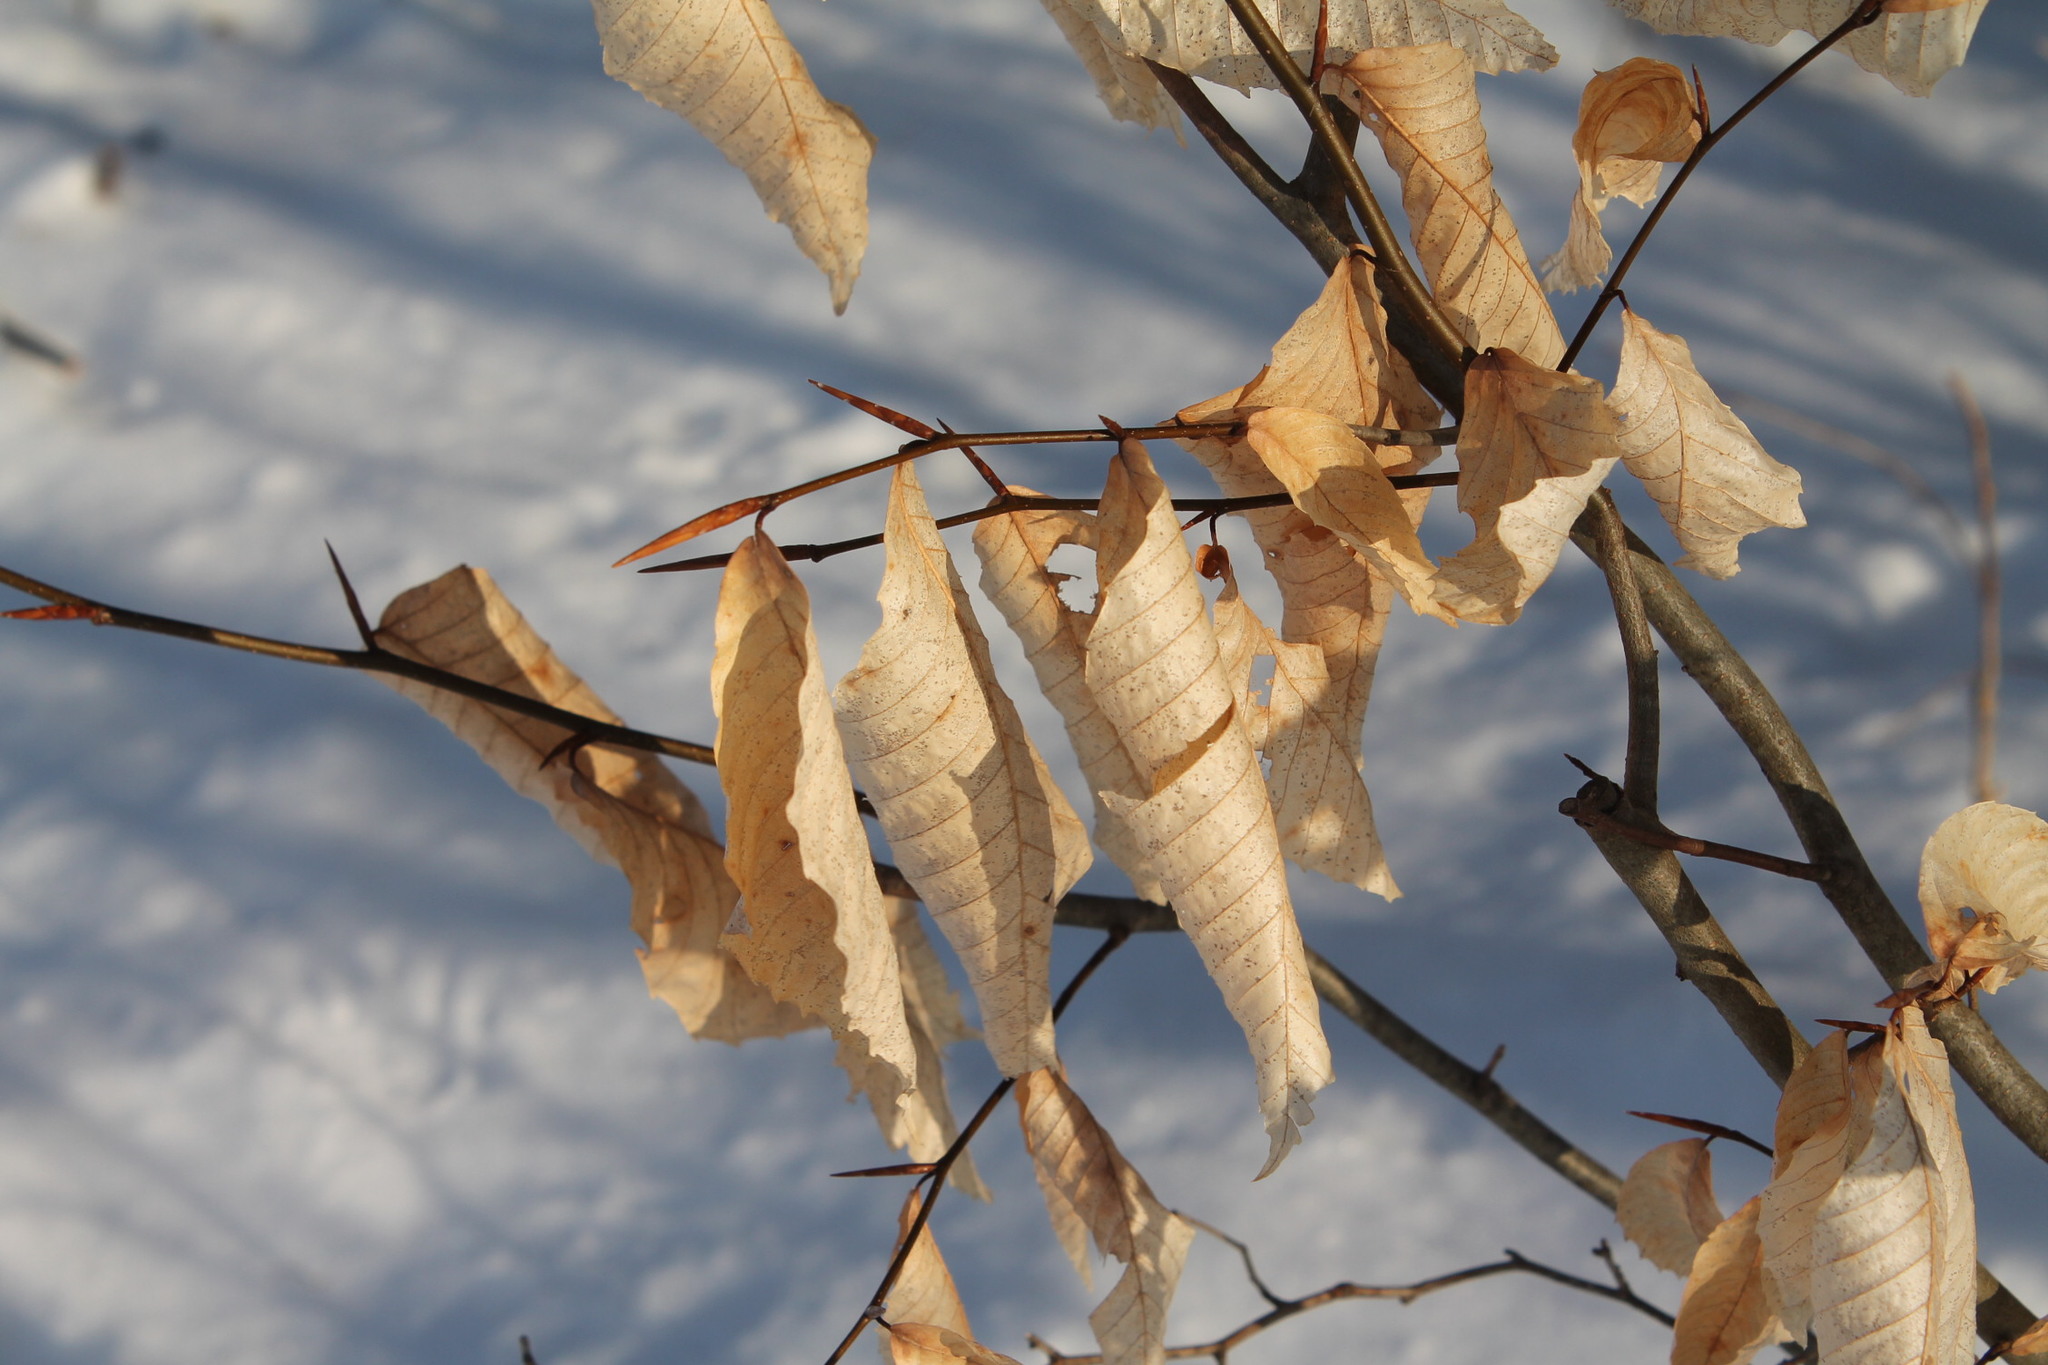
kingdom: Plantae
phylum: Tracheophyta
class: Magnoliopsida
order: Fagales
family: Fagaceae
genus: Fagus
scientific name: Fagus grandifolia
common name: American beech
